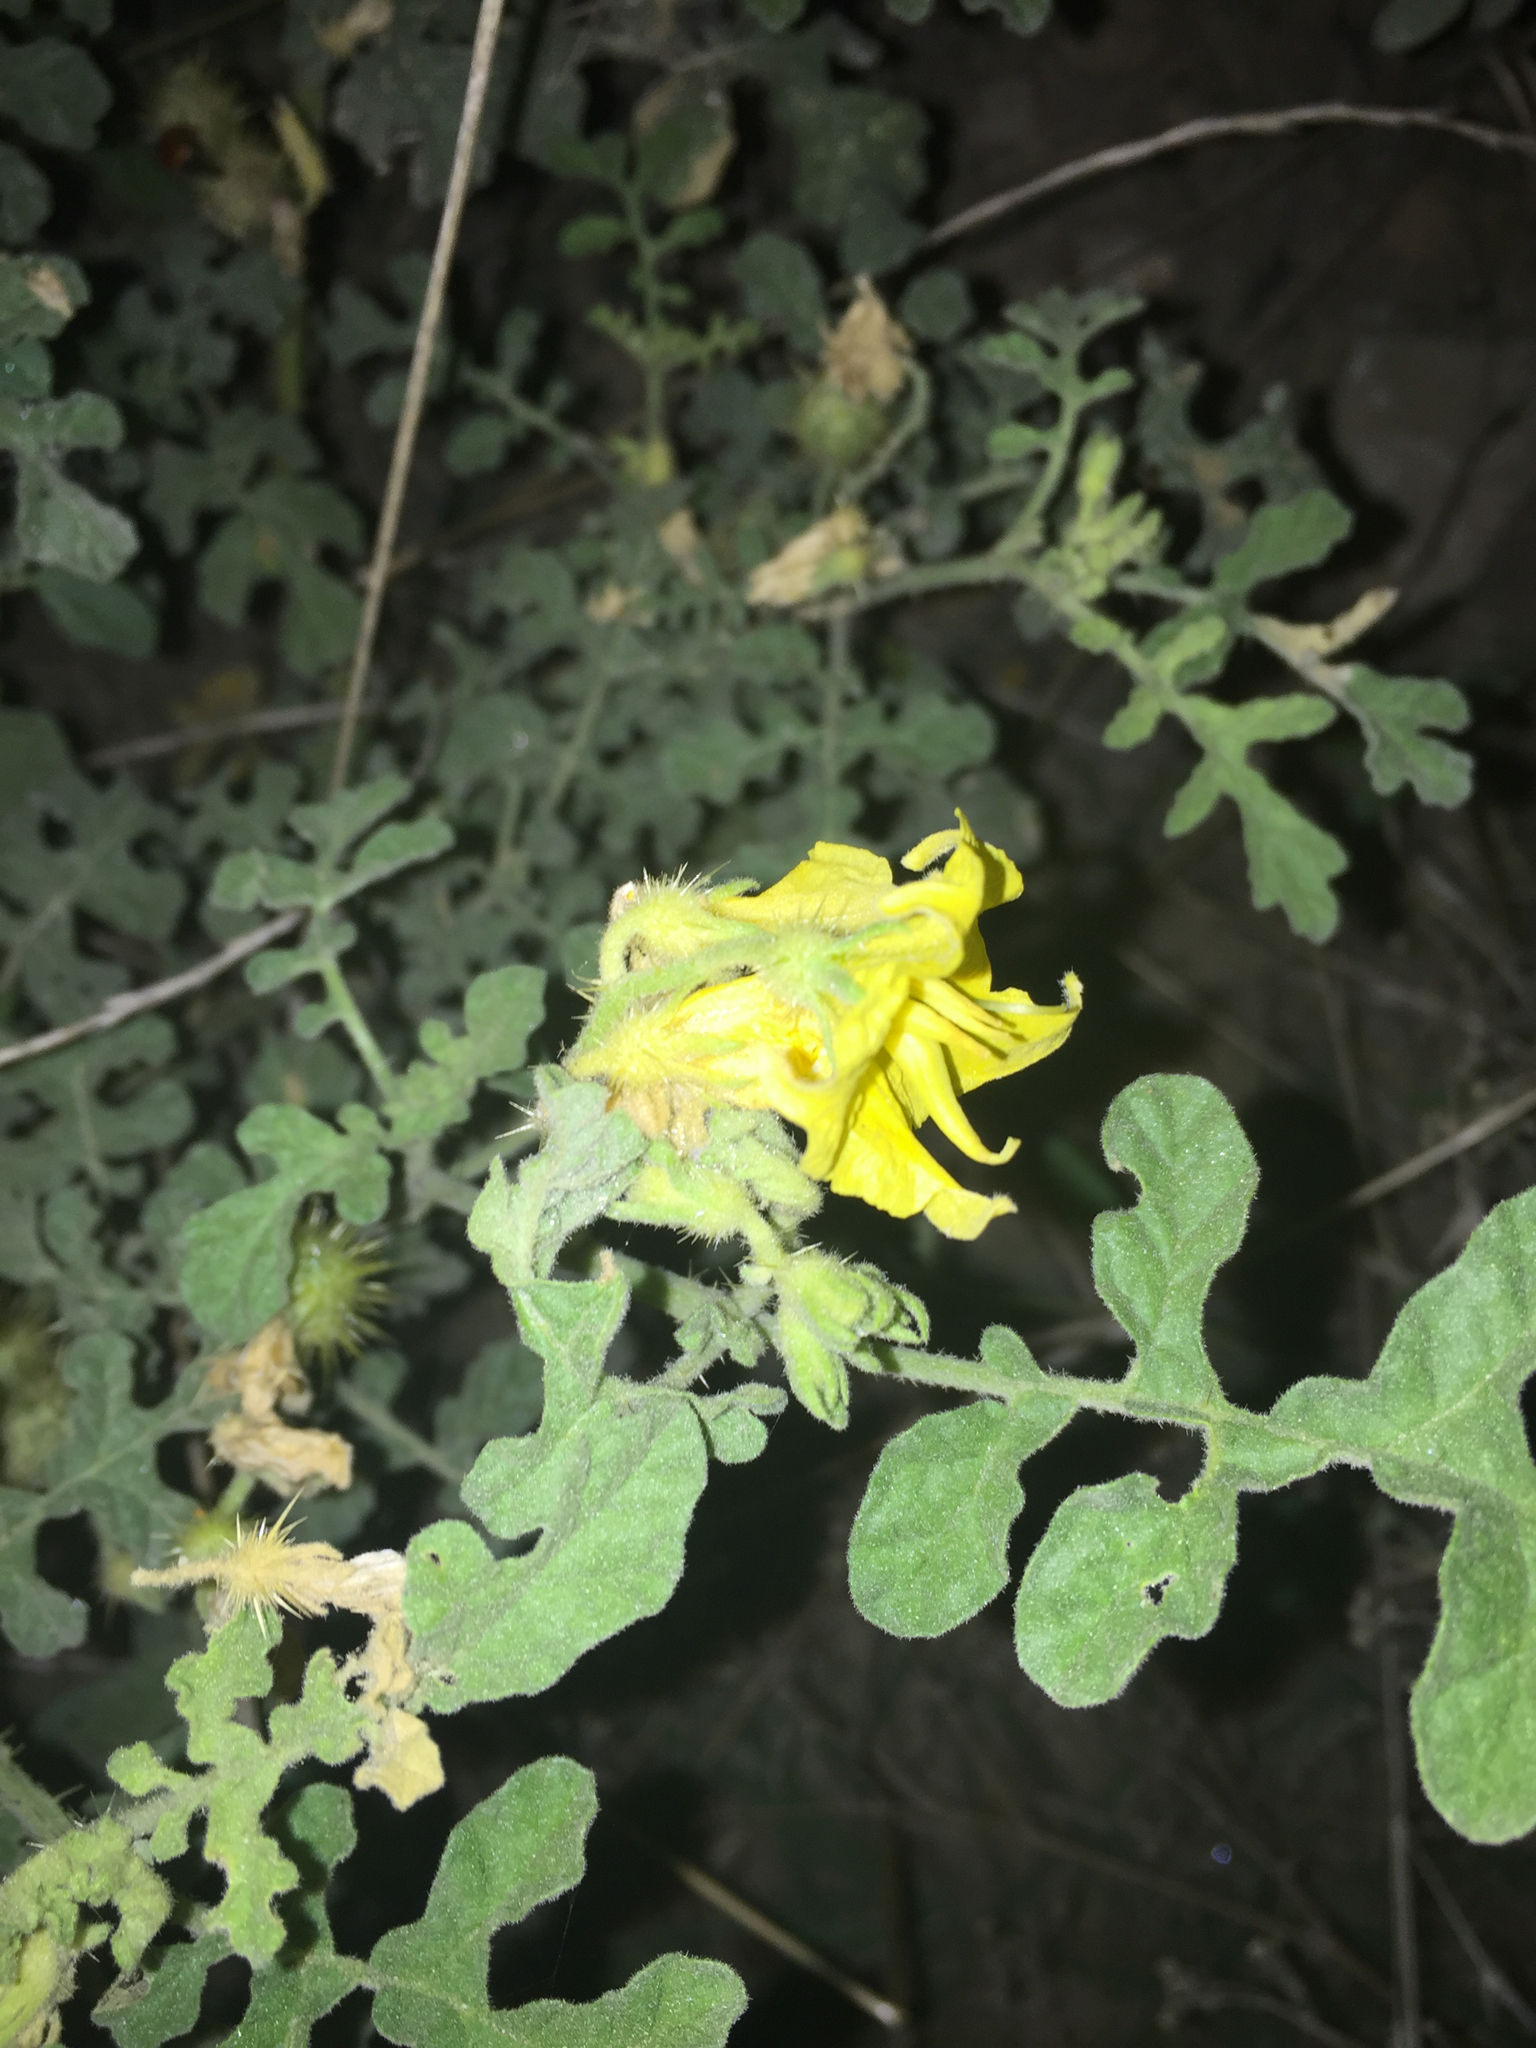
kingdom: Plantae
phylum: Tracheophyta
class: Magnoliopsida
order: Solanales
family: Solanaceae
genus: Solanum
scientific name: Solanum angustifolium
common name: Buffalobur nightshade
